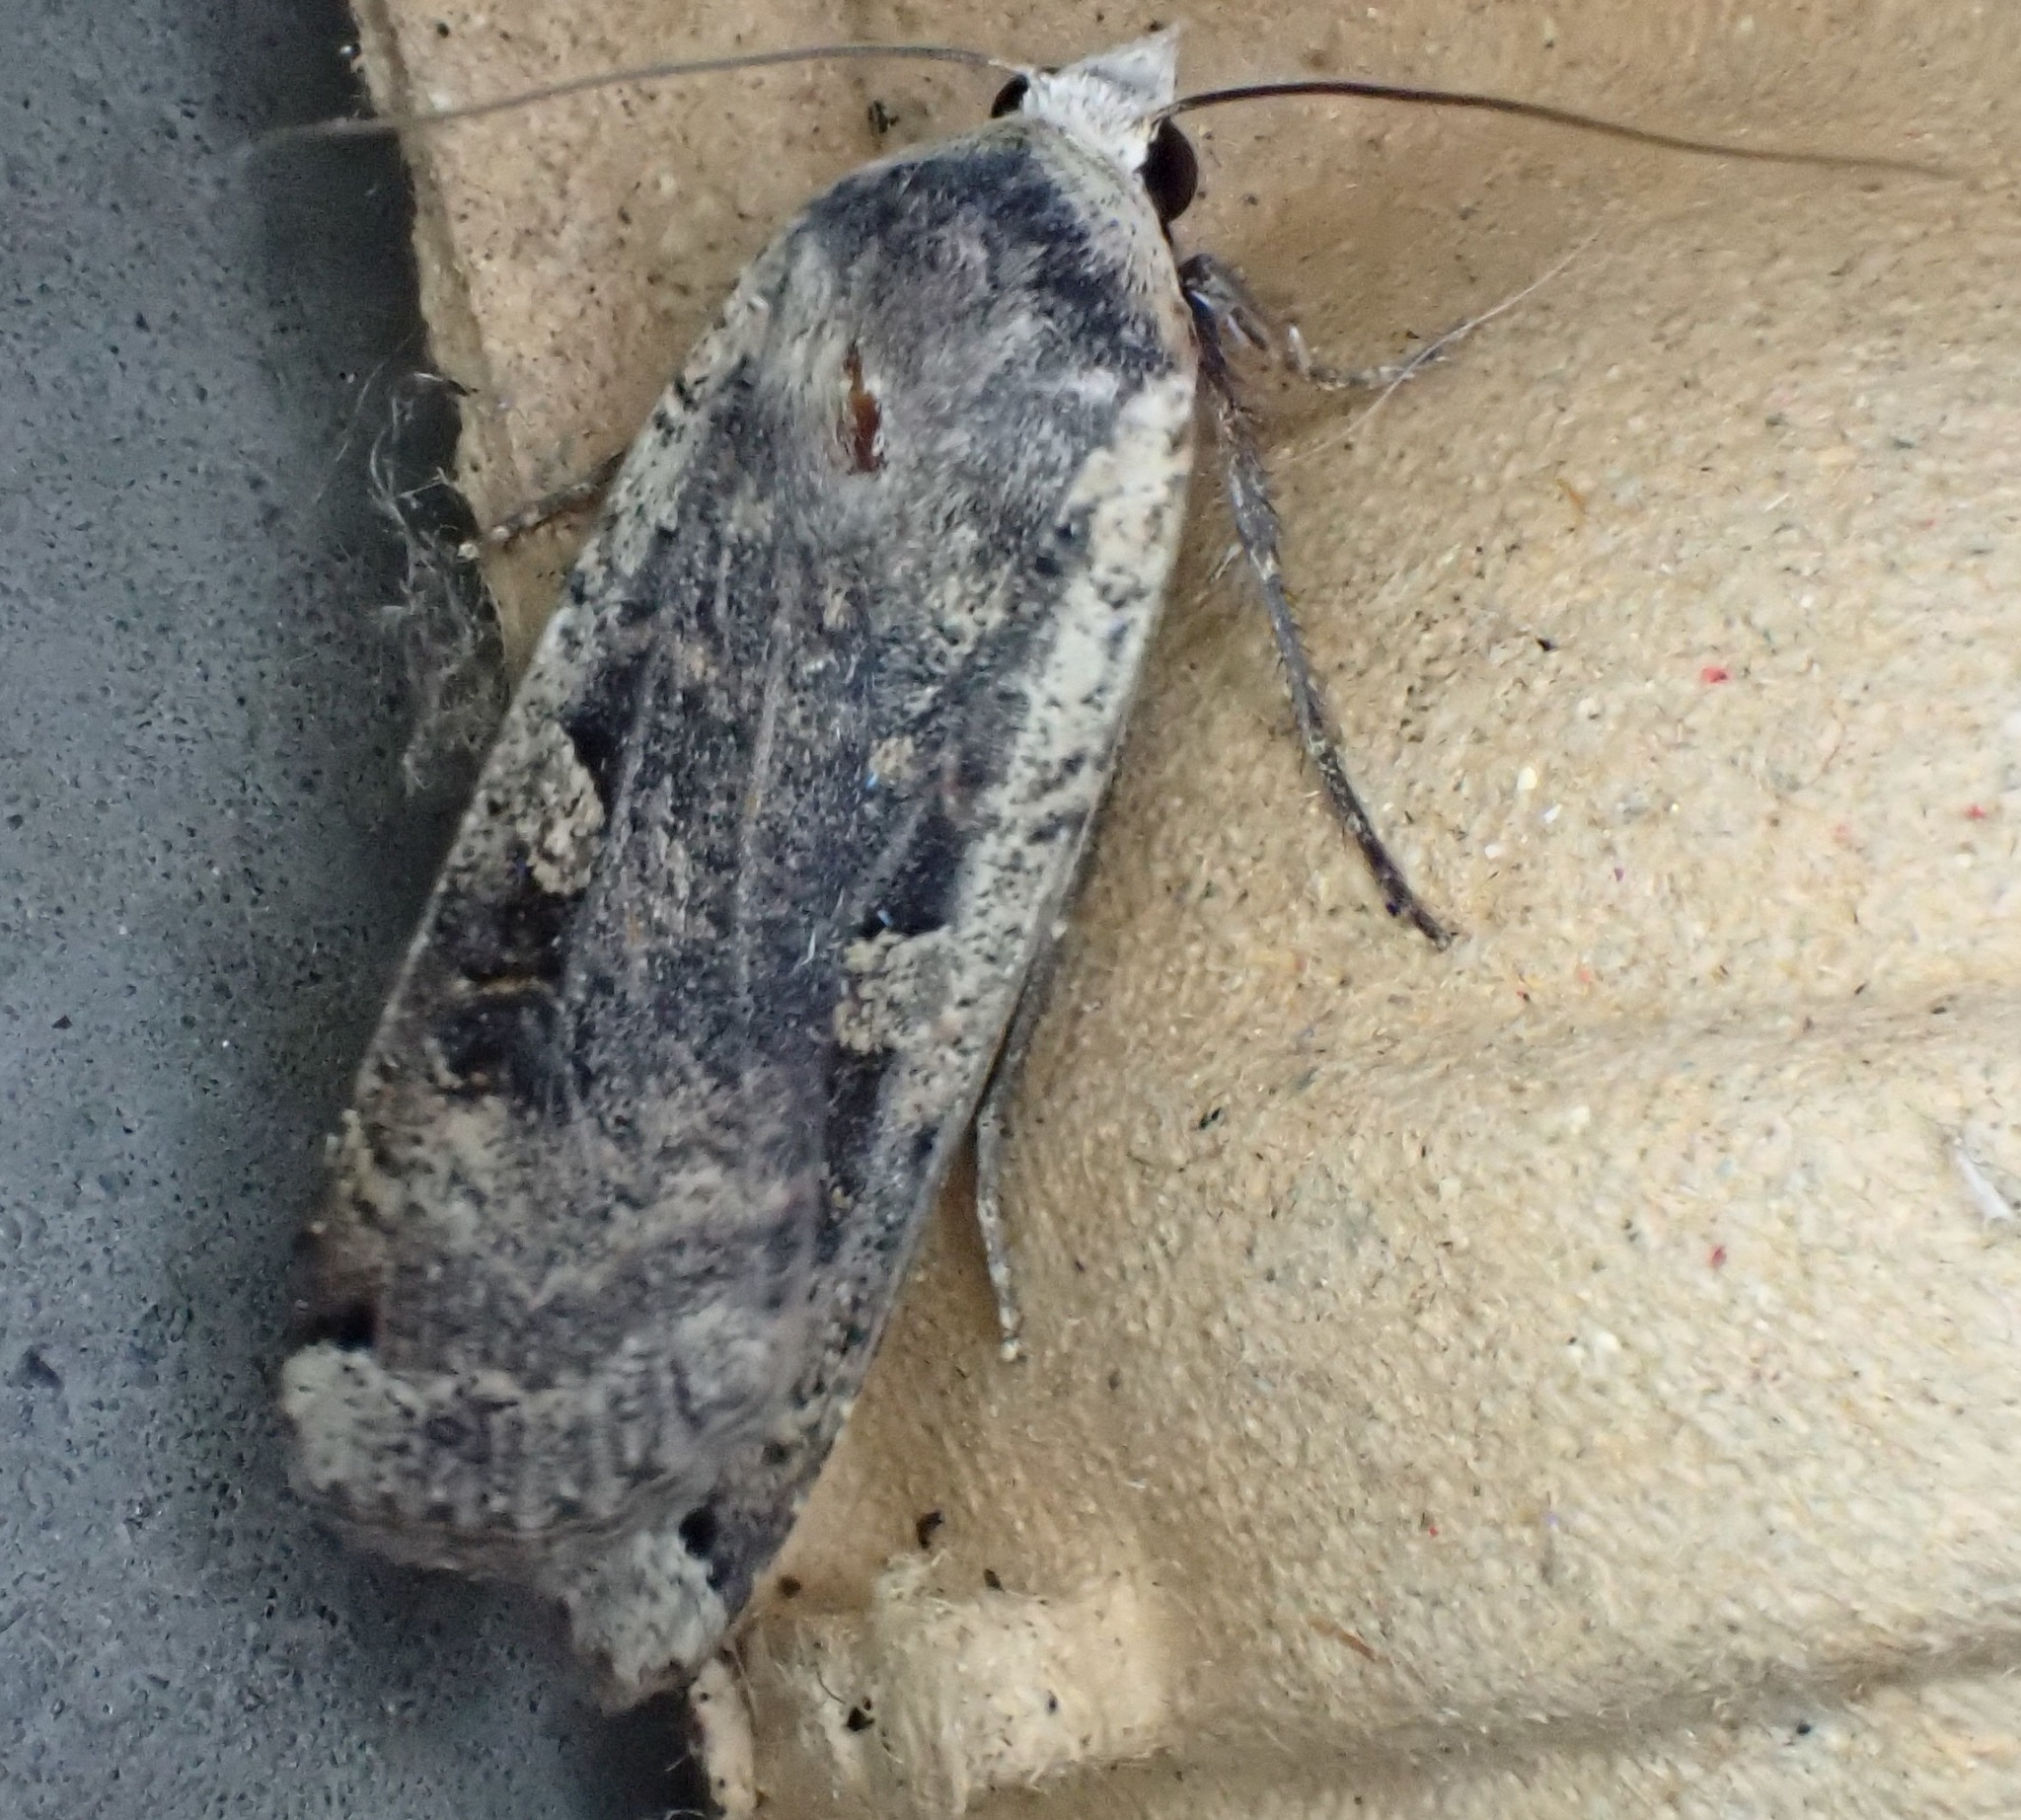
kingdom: Animalia
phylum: Arthropoda
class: Insecta
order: Lepidoptera
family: Noctuidae
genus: Noctua
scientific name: Noctua pronuba
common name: Large yellow underwing
